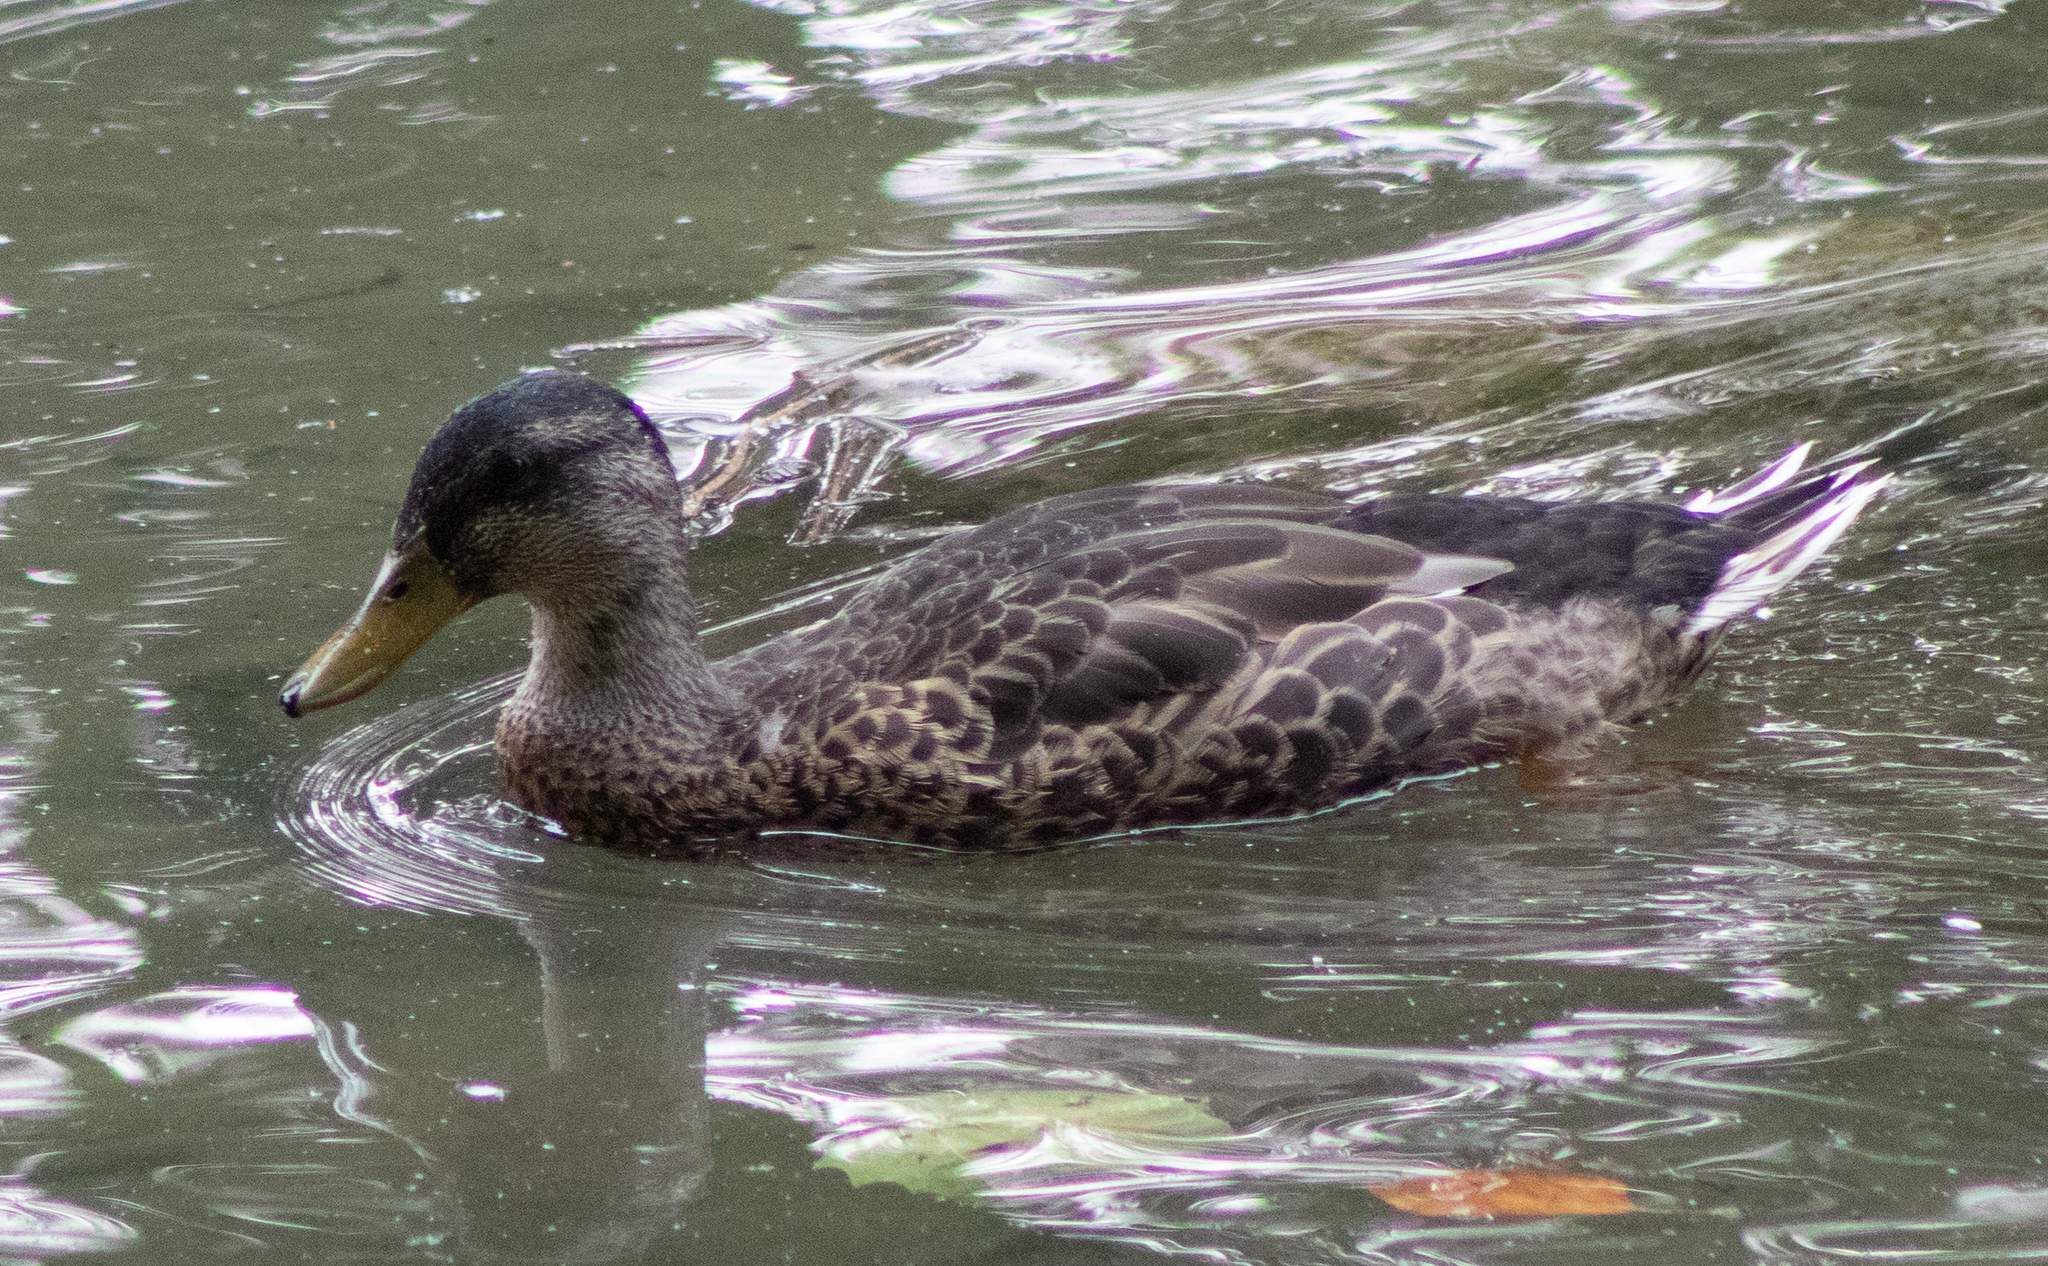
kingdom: Animalia
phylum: Chordata
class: Aves
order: Anseriformes
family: Anatidae
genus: Anas
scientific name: Anas platyrhynchos
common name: Mallard
